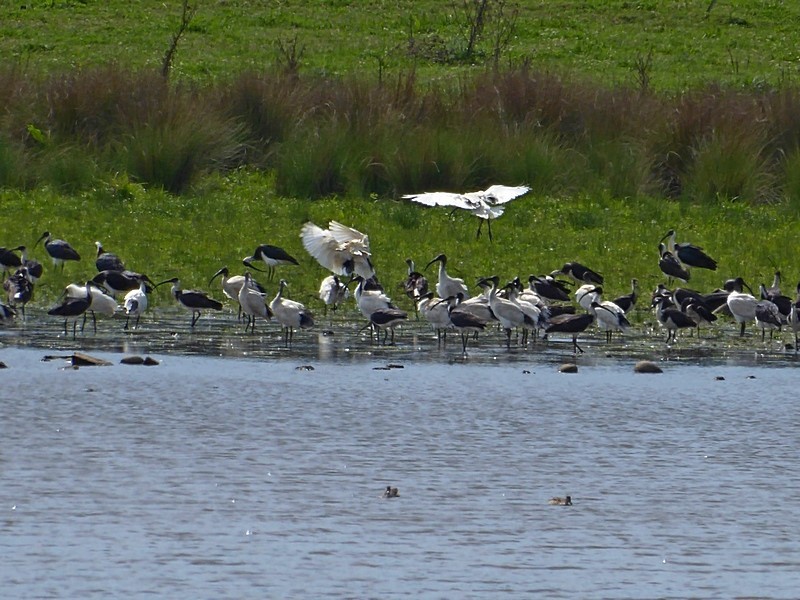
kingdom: Animalia
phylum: Chordata
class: Aves
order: Pelecaniformes
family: Threskiornithidae
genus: Threskiornis
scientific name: Threskiornis molucca
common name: Australian white ibis
